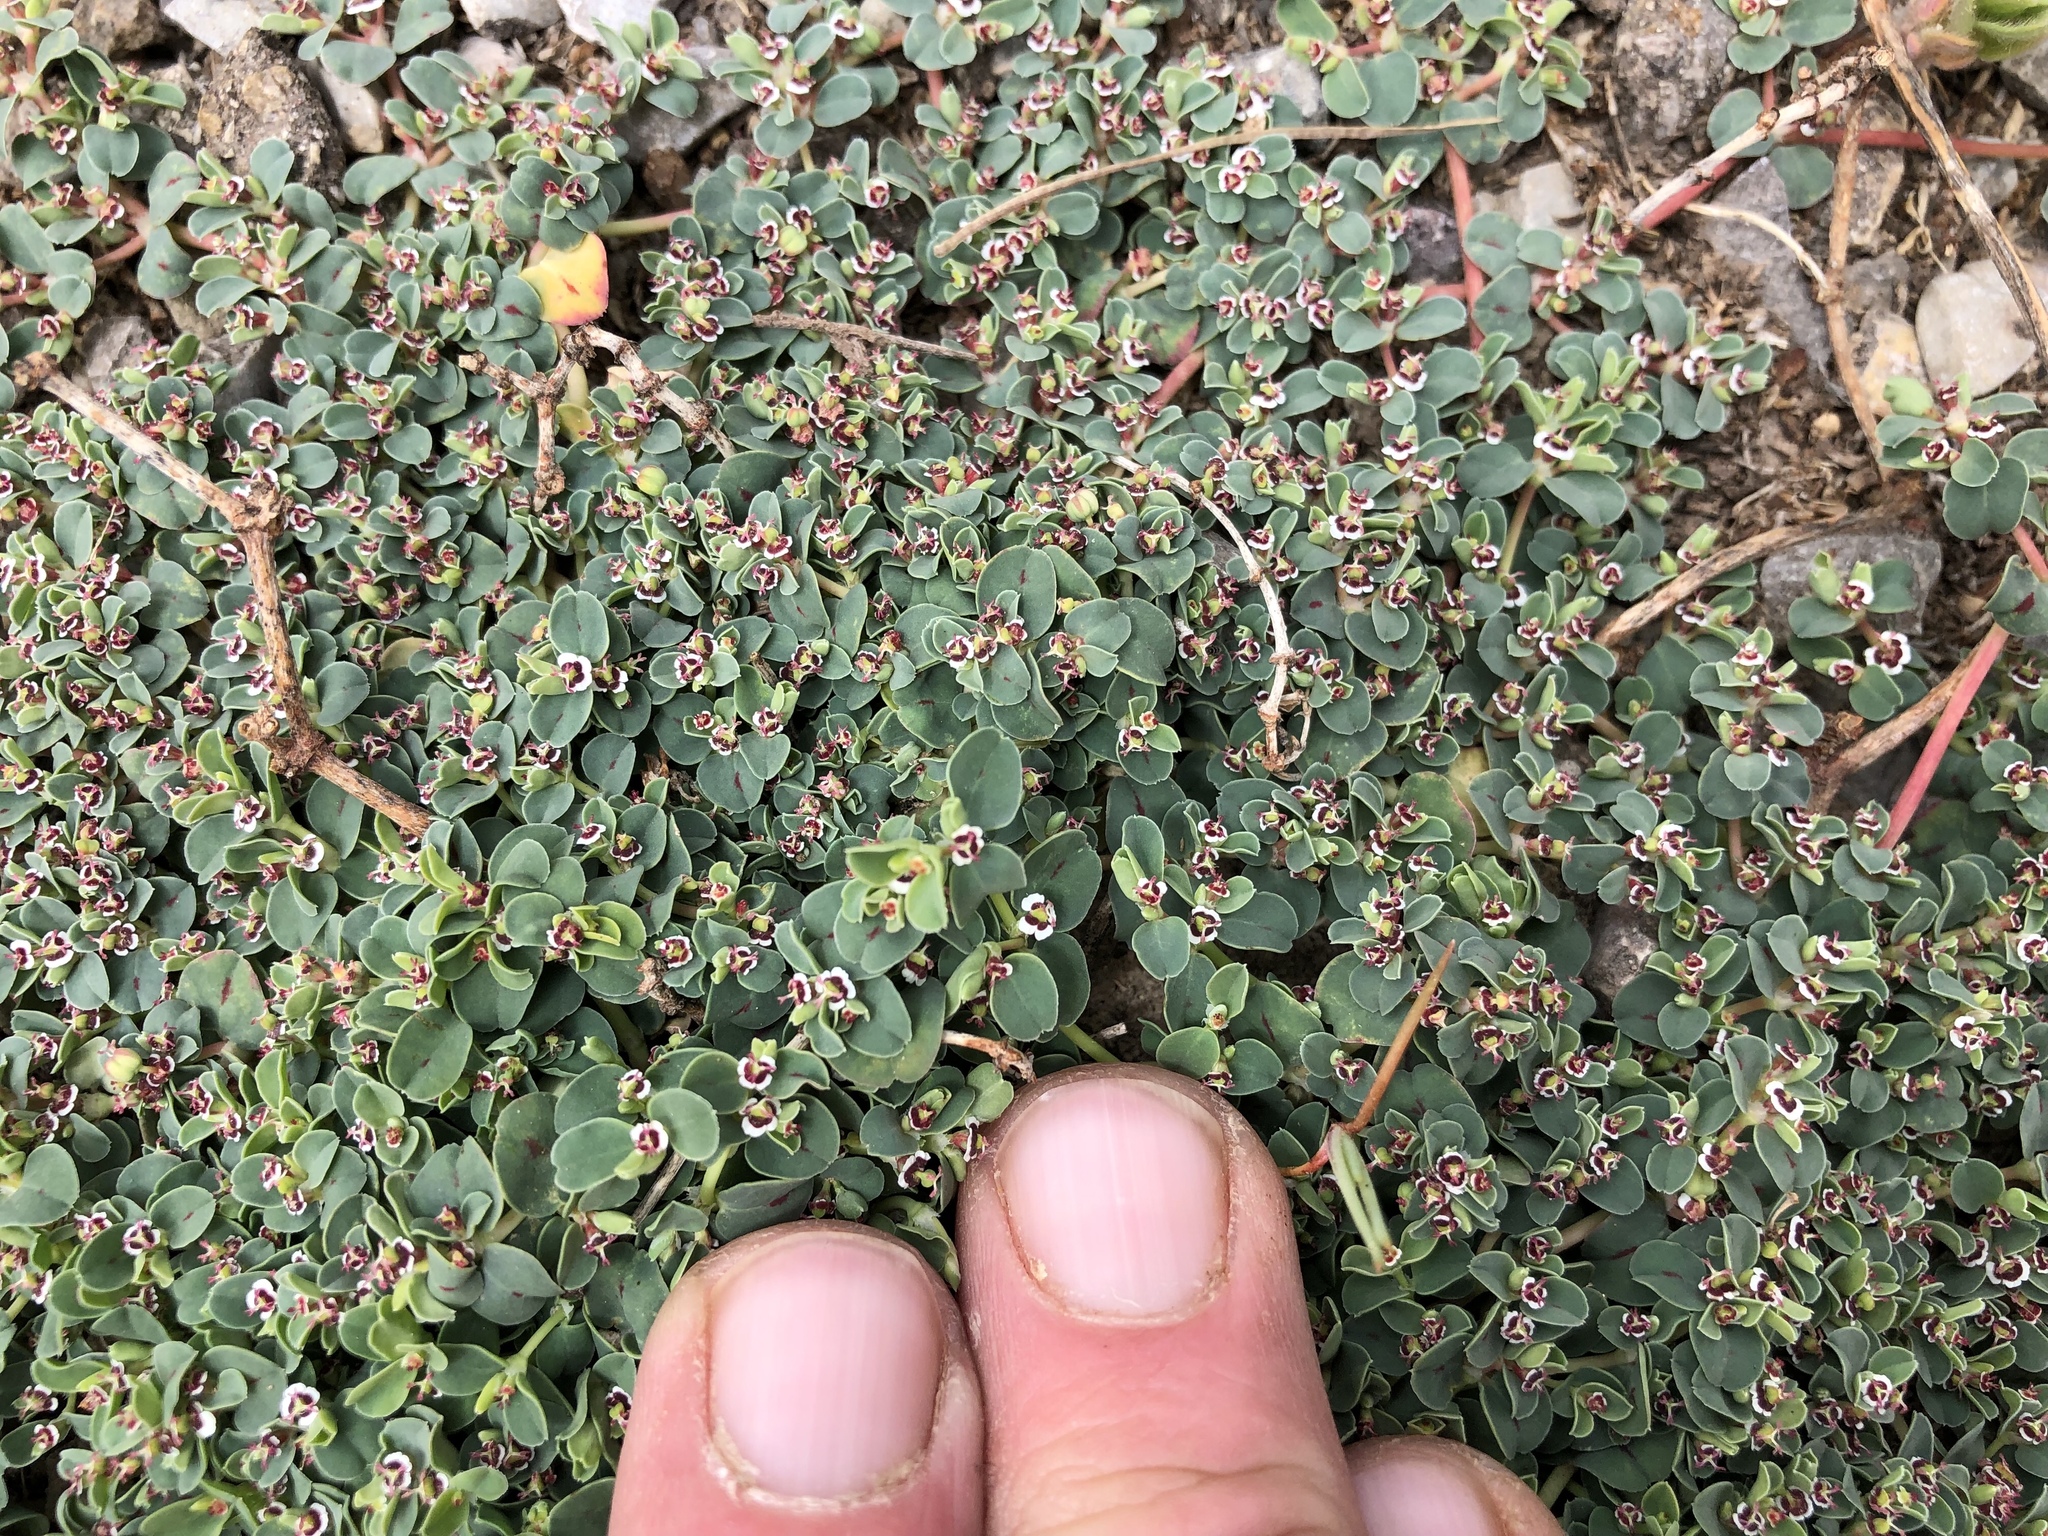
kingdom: Plantae
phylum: Tracheophyta
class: Magnoliopsida
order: Malpighiales
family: Euphorbiaceae
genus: Euphorbia
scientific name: Euphorbia albomarginata
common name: Whitemargin sandmat
